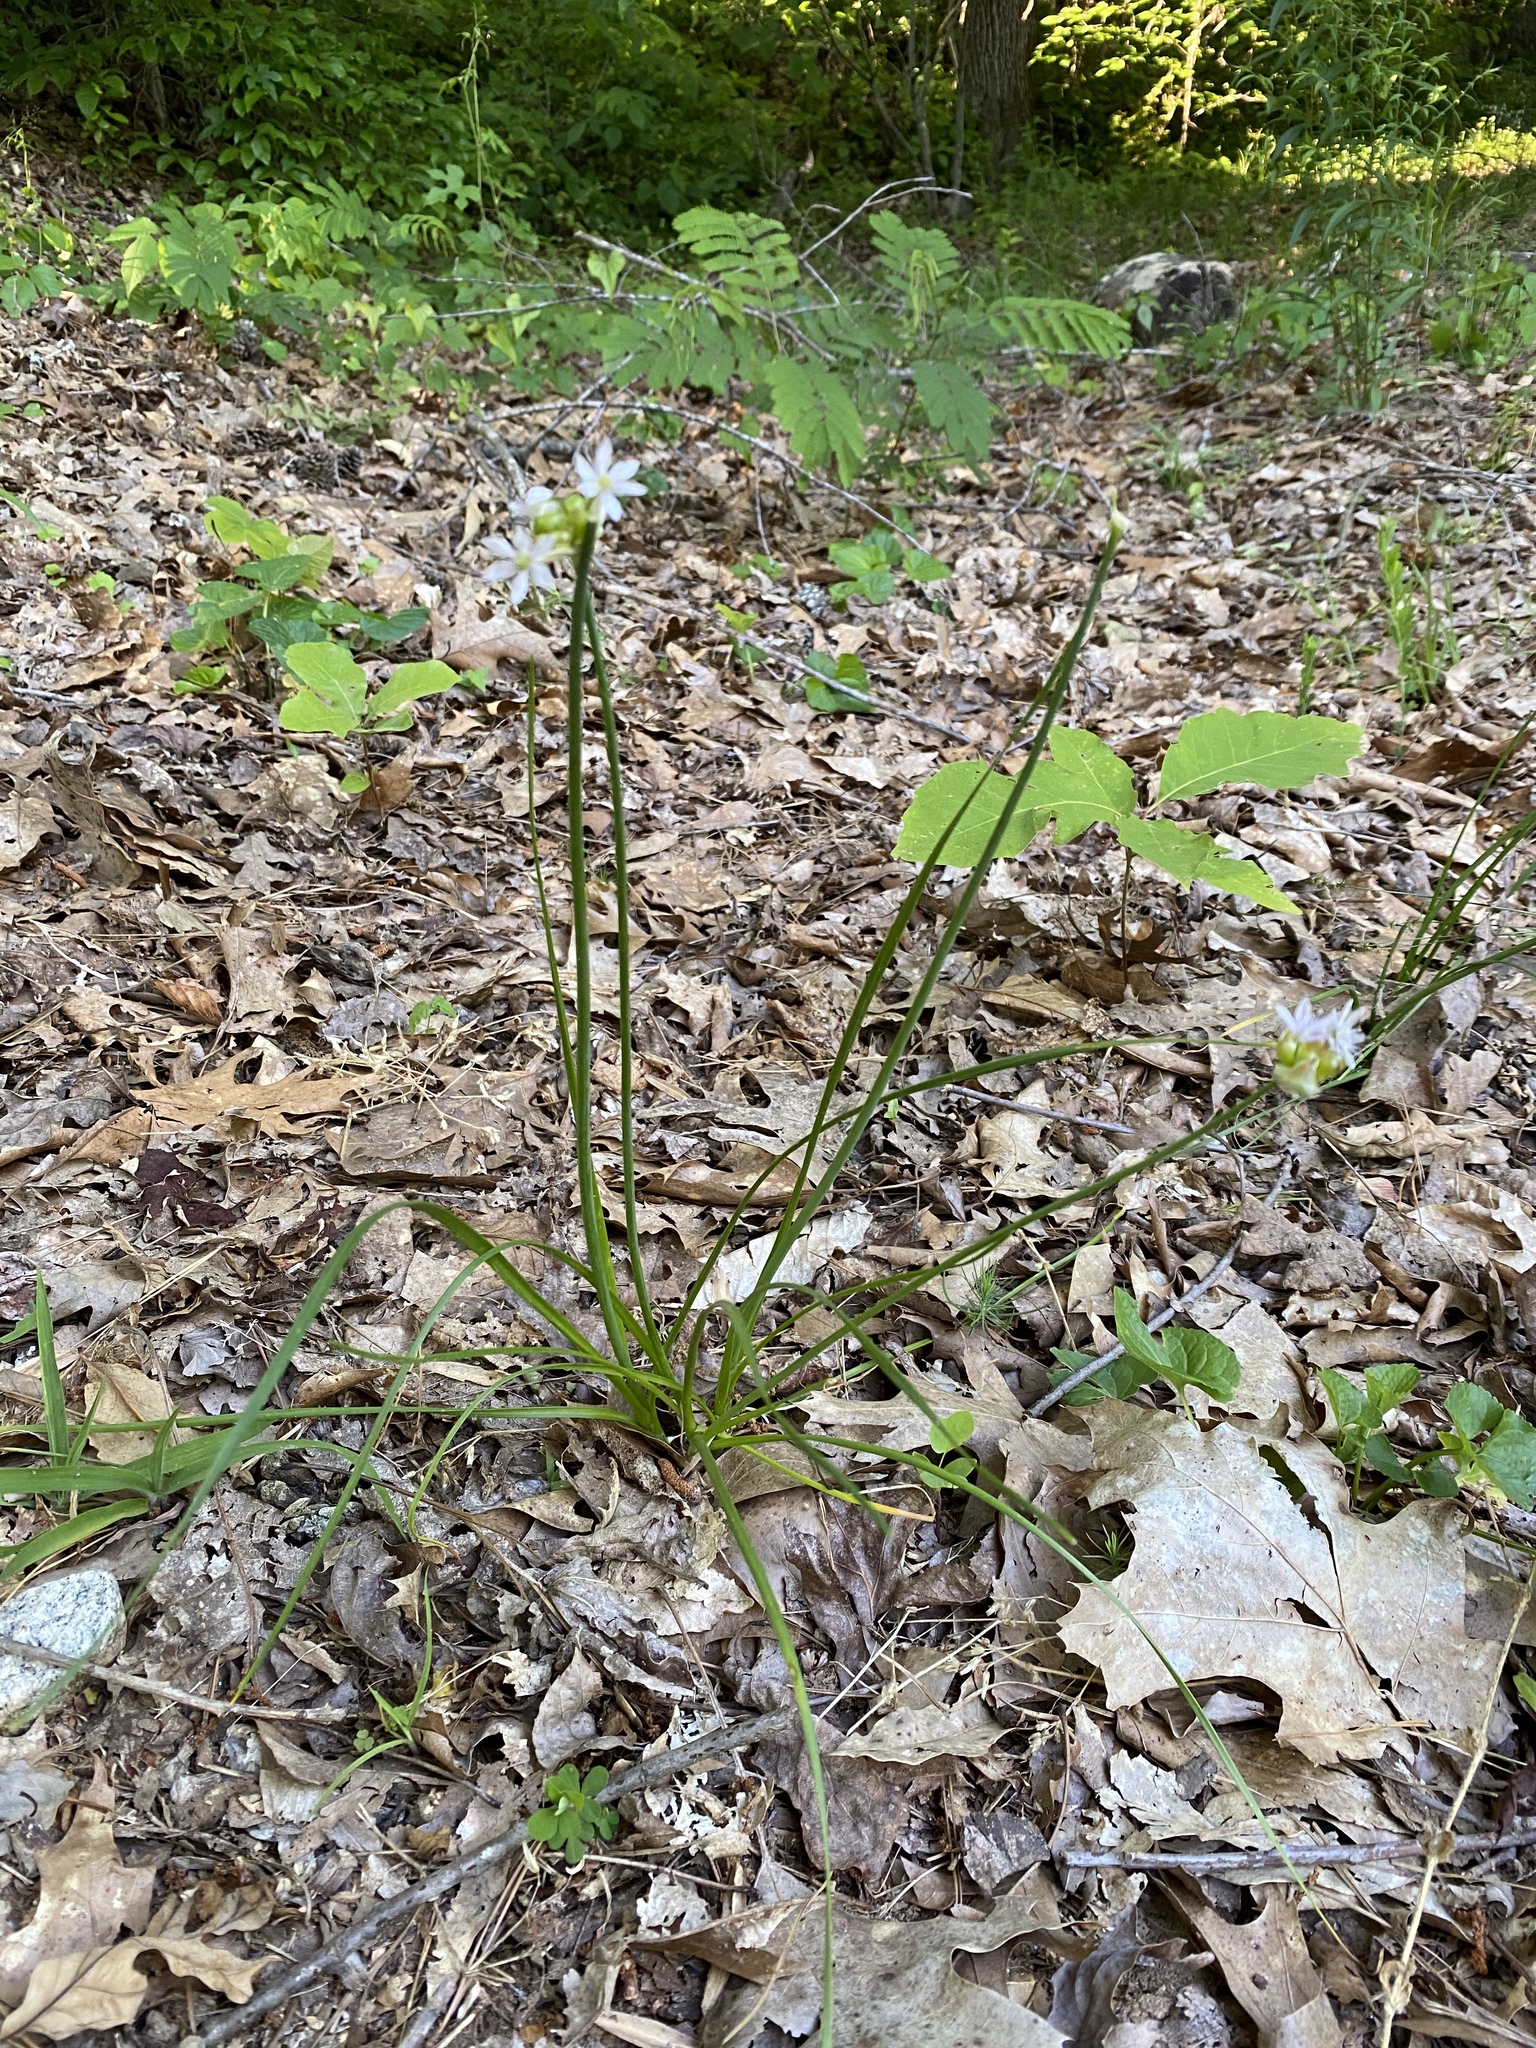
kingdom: Plantae
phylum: Tracheophyta
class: Liliopsida
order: Asparagales
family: Amaryllidaceae
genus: Allium
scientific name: Allium canadense
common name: Meadow garlic
